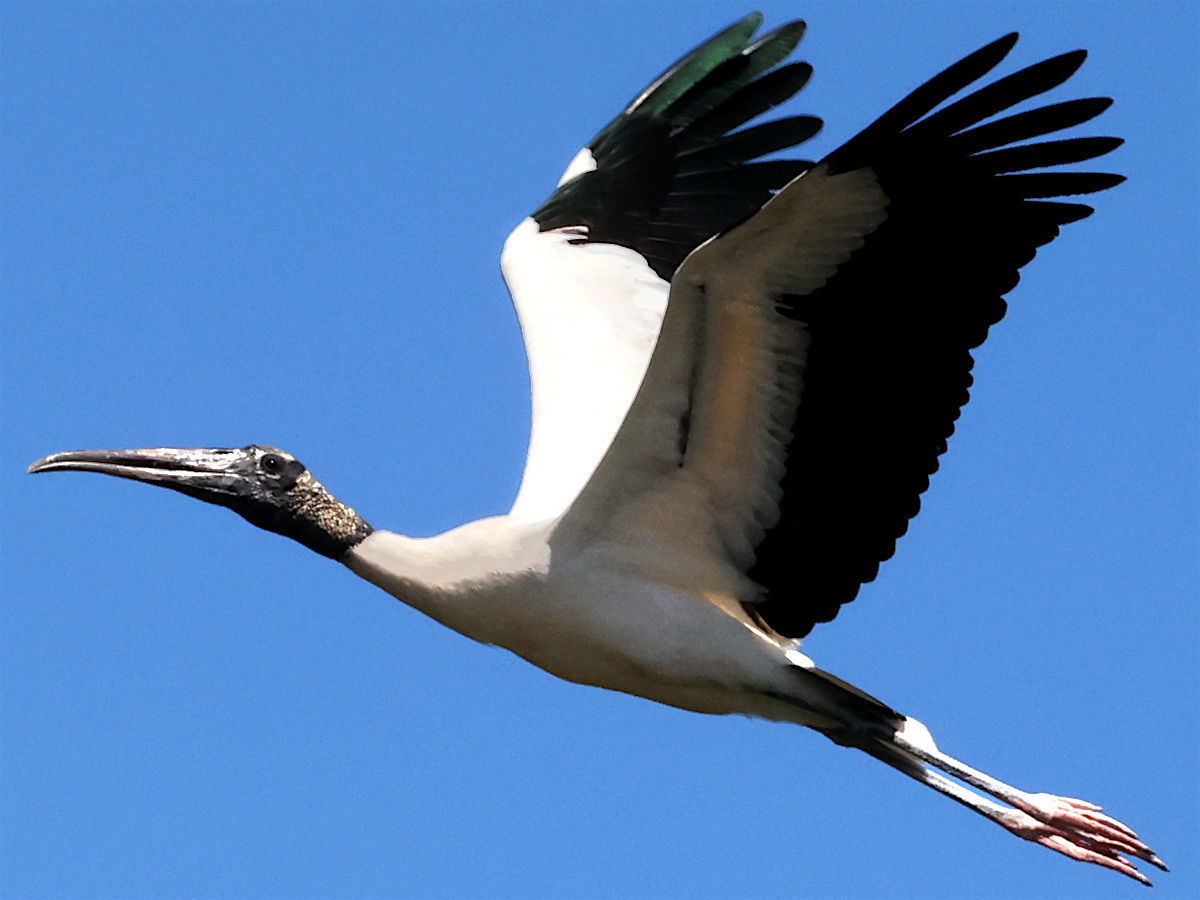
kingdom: Animalia
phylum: Chordata
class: Aves
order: Ciconiiformes
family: Ciconiidae
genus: Mycteria
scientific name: Mycteria americana
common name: Wood stork
